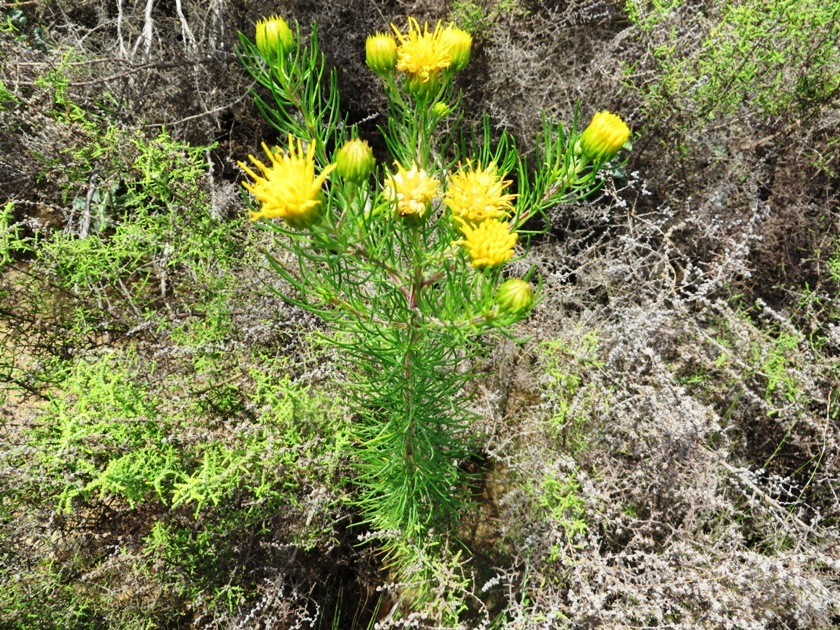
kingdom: Plantae
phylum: Tracheophyta
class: Magnoliopsida
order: Asterales
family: Asteraceae
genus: Pteronia
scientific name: Pteronia camphorata
